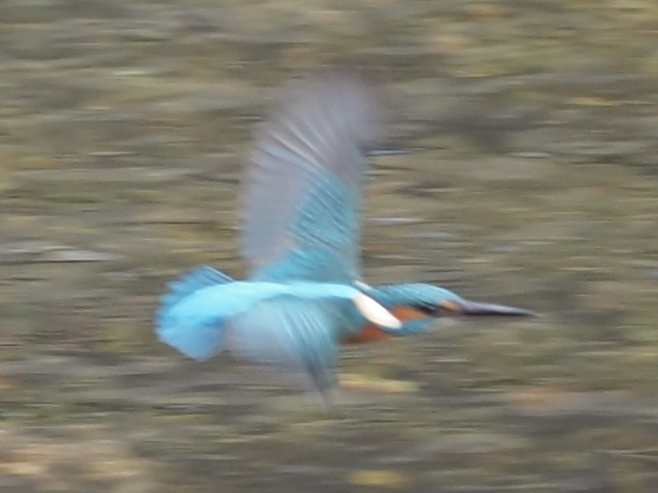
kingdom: Animalia
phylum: Chordata
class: Aves
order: Coraciiformes
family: Alcedinidae
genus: Alcedo
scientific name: Alcedo atthis
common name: Common kingfisher
